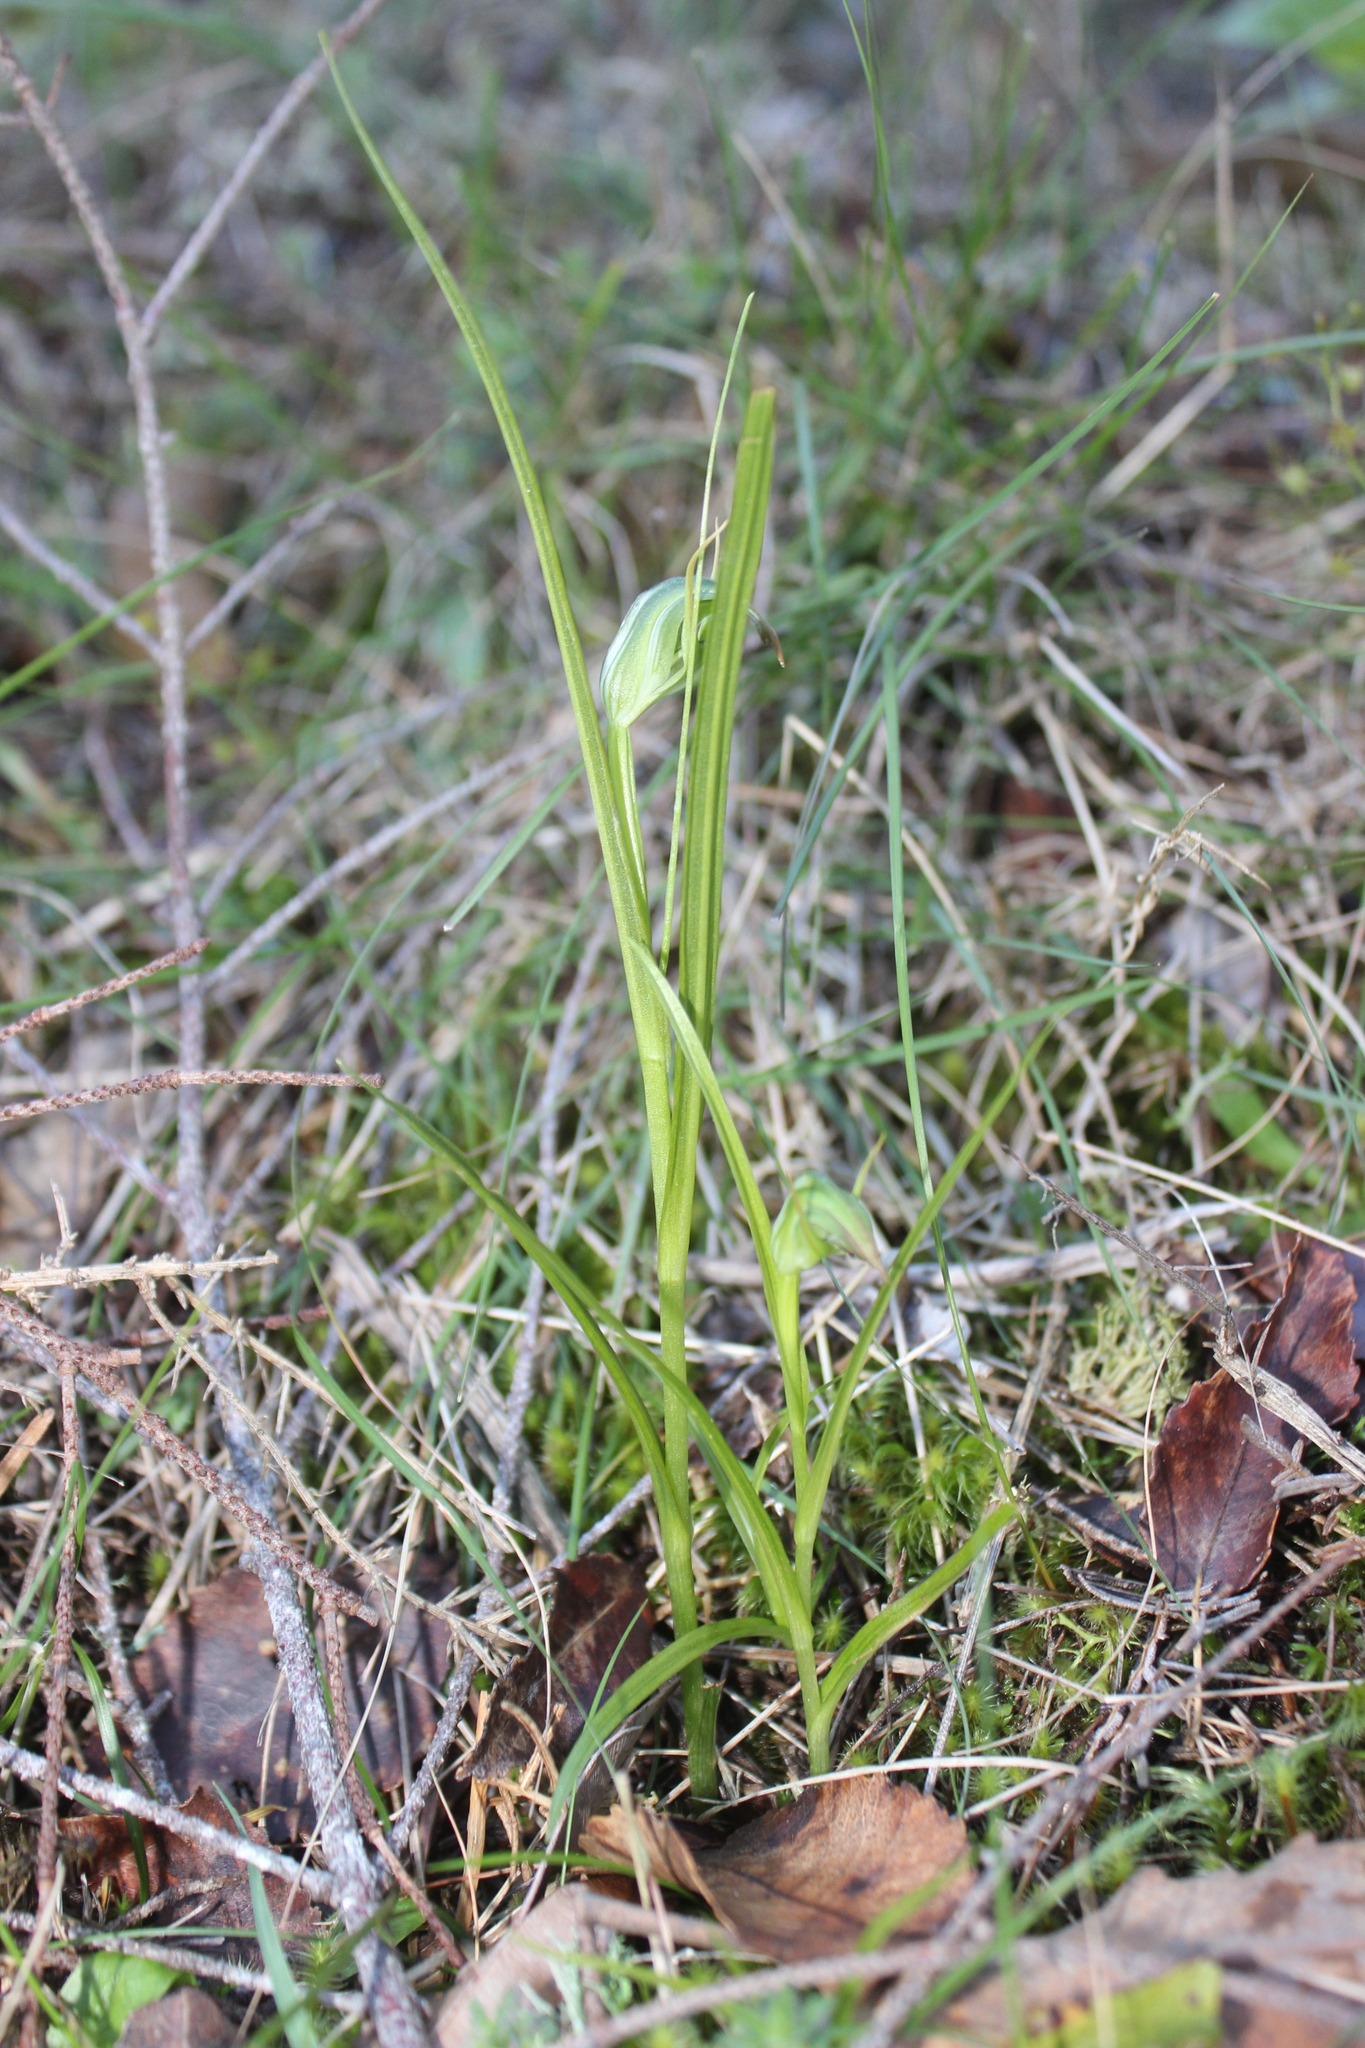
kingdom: Plantae
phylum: Tracheophyta
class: Liliopsida
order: Asparagales
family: Orchidaceae
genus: Pterostylis
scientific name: Pterostylis graminea
